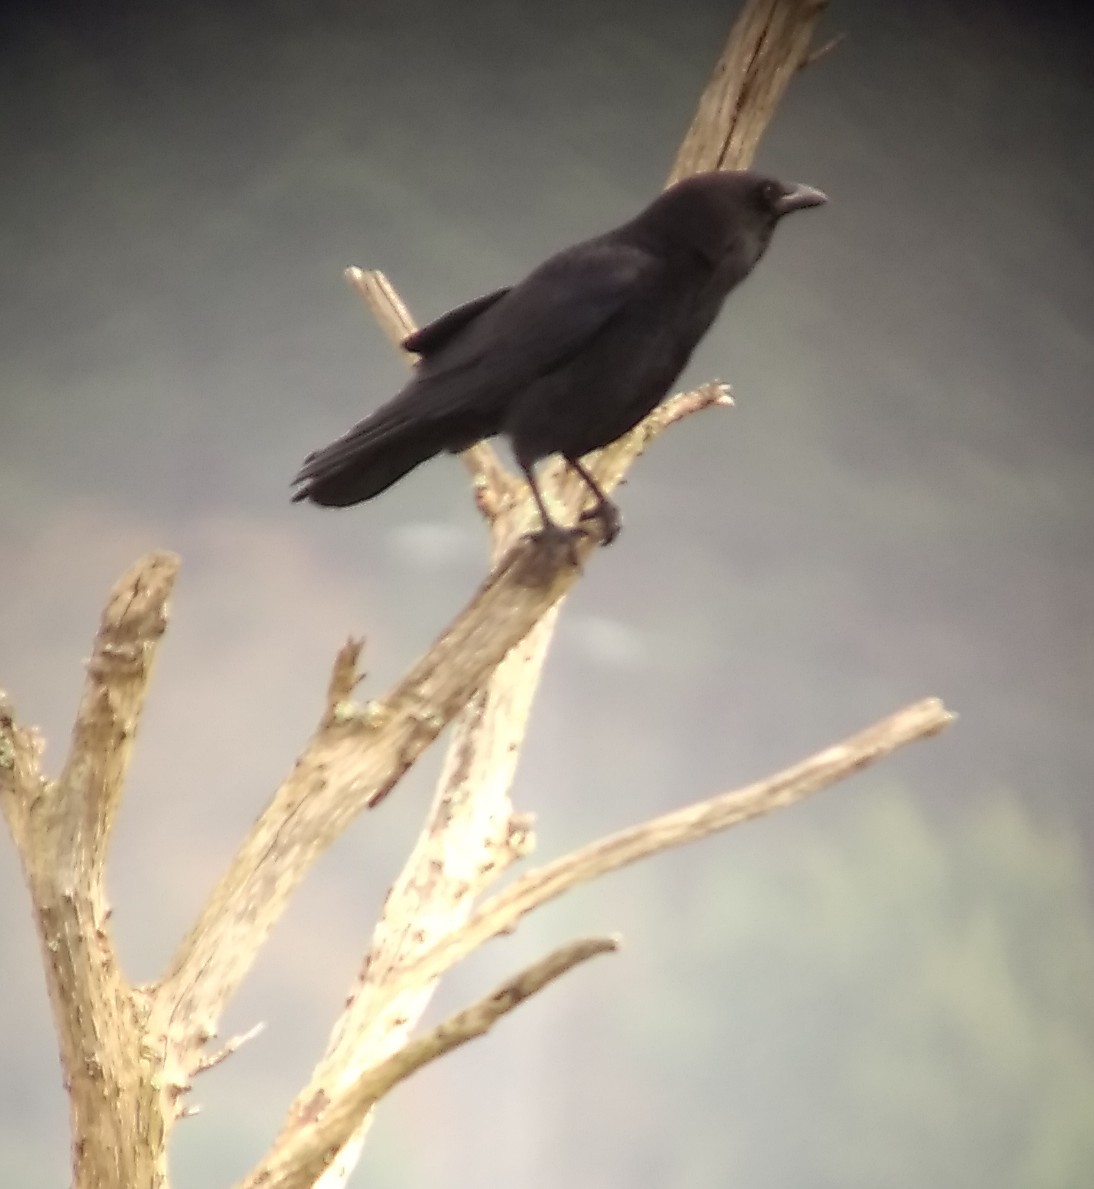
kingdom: Animalia
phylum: Chordata
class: Aves
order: Passeriformes
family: Corvidae
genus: Corvus
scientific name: Corvus corone
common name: Carrion crow
